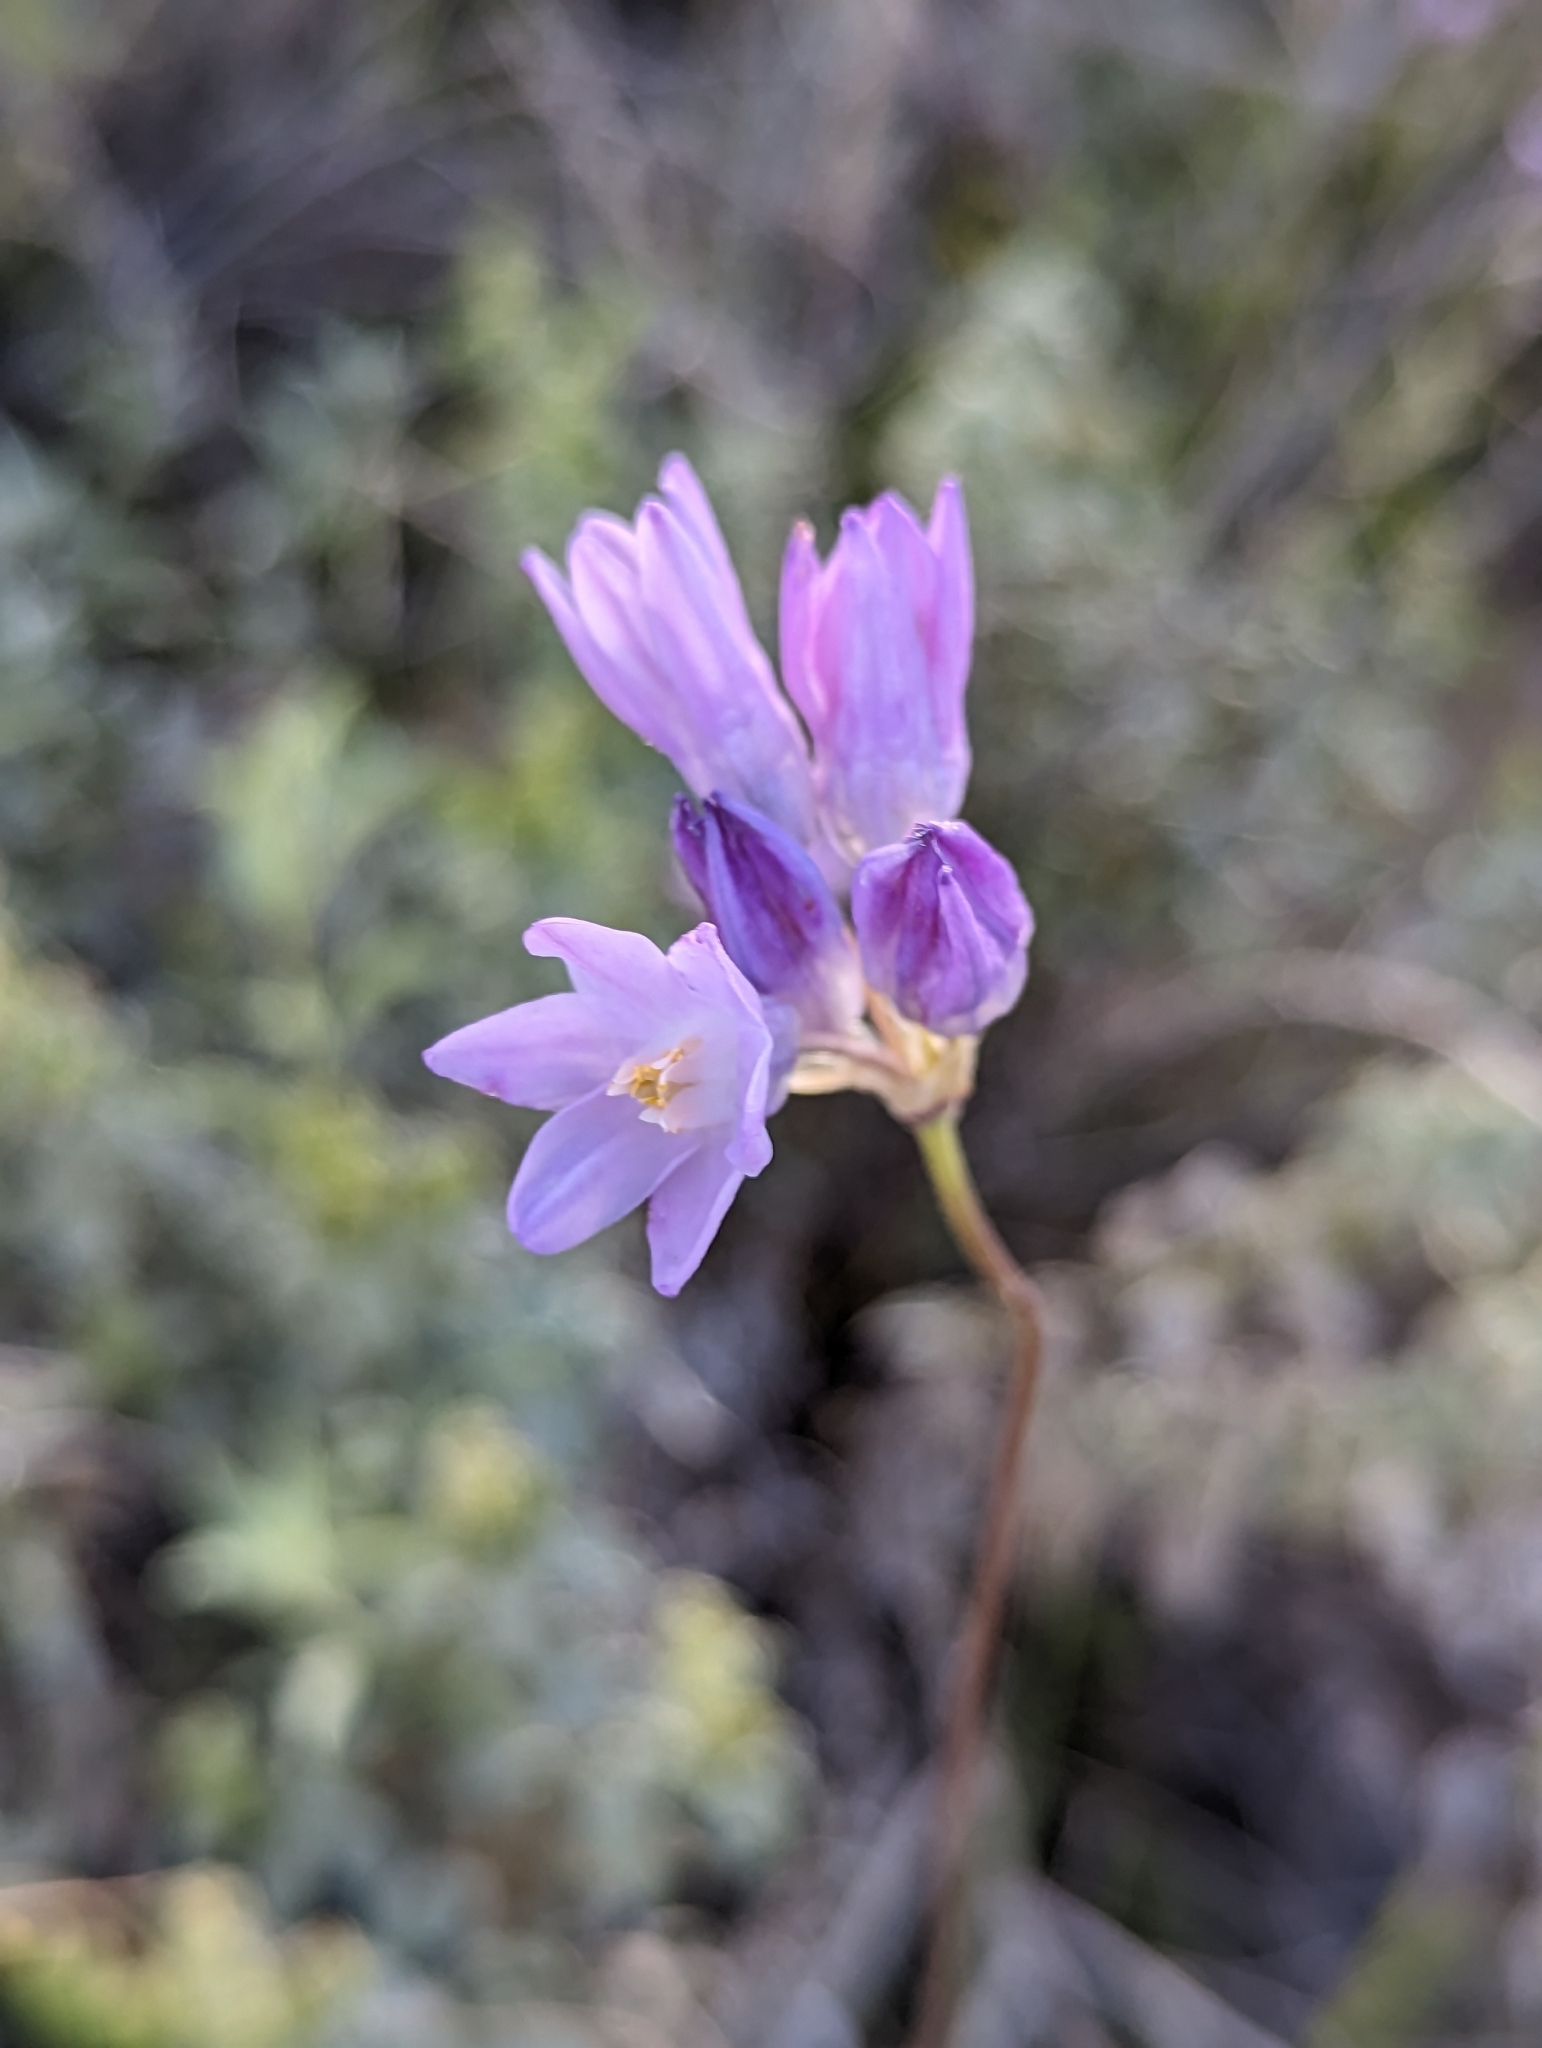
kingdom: Plantae
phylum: Tracheophyta
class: Liliopsida
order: Asparagales
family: Asparagaceae
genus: Dipterostemon
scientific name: Dipterostemon capitatus
